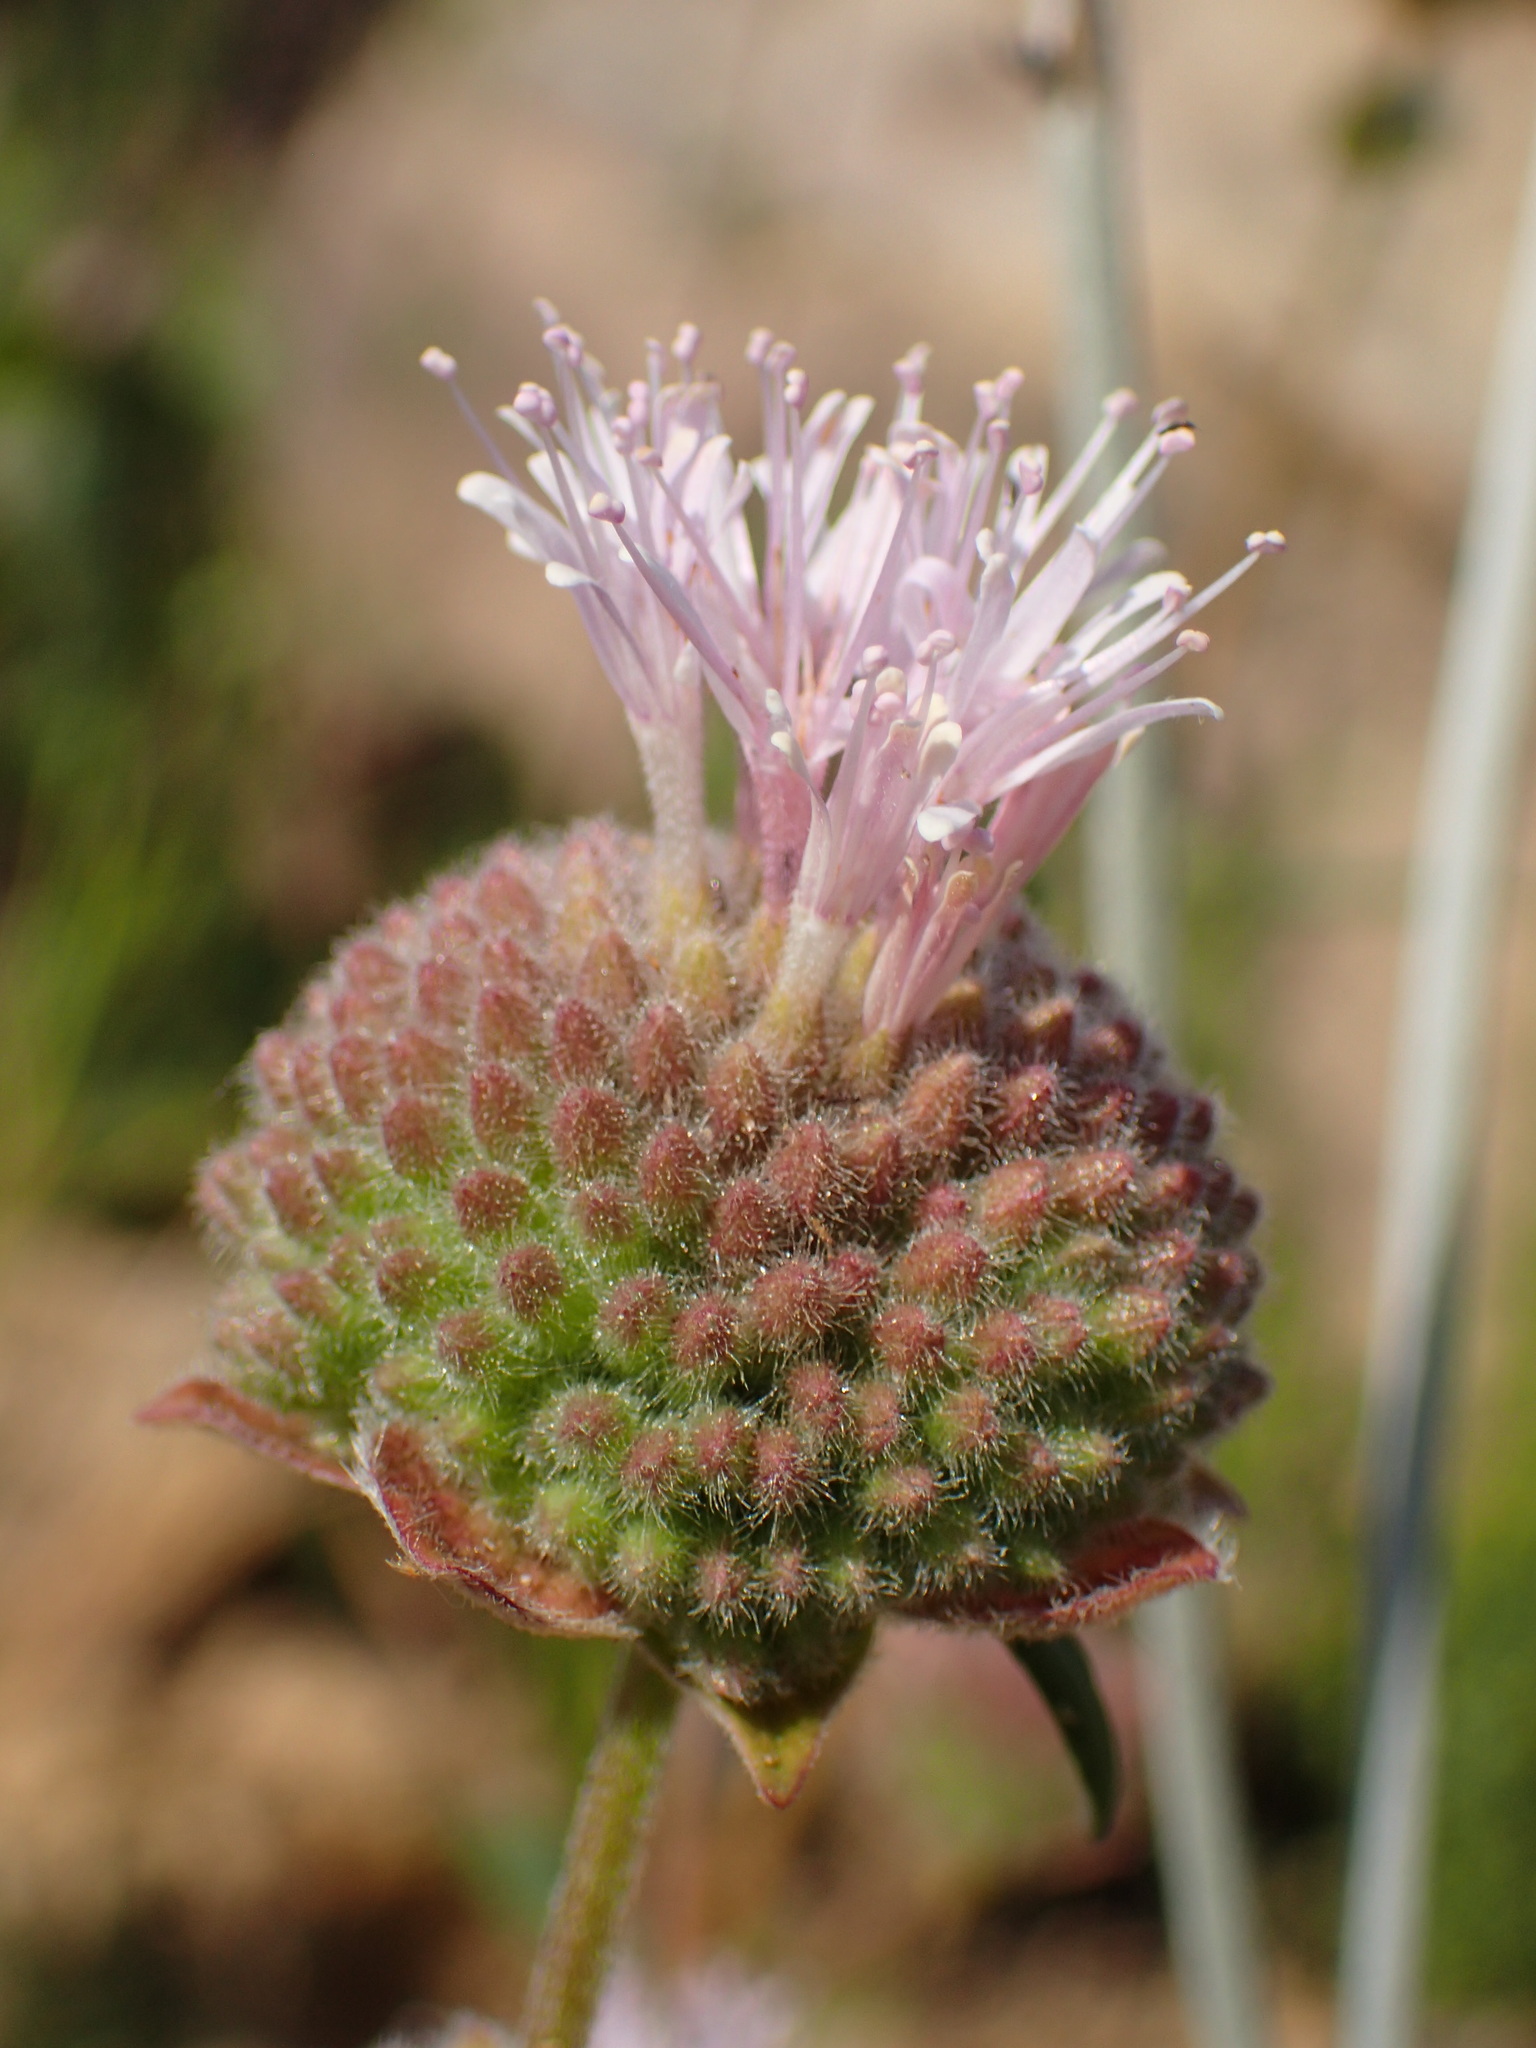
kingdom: Plantae
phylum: Tracheophyta
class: Magnoliopsida
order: Lamiales
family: Lamiaceae
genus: Monardella
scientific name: Monardella hypoleuca
